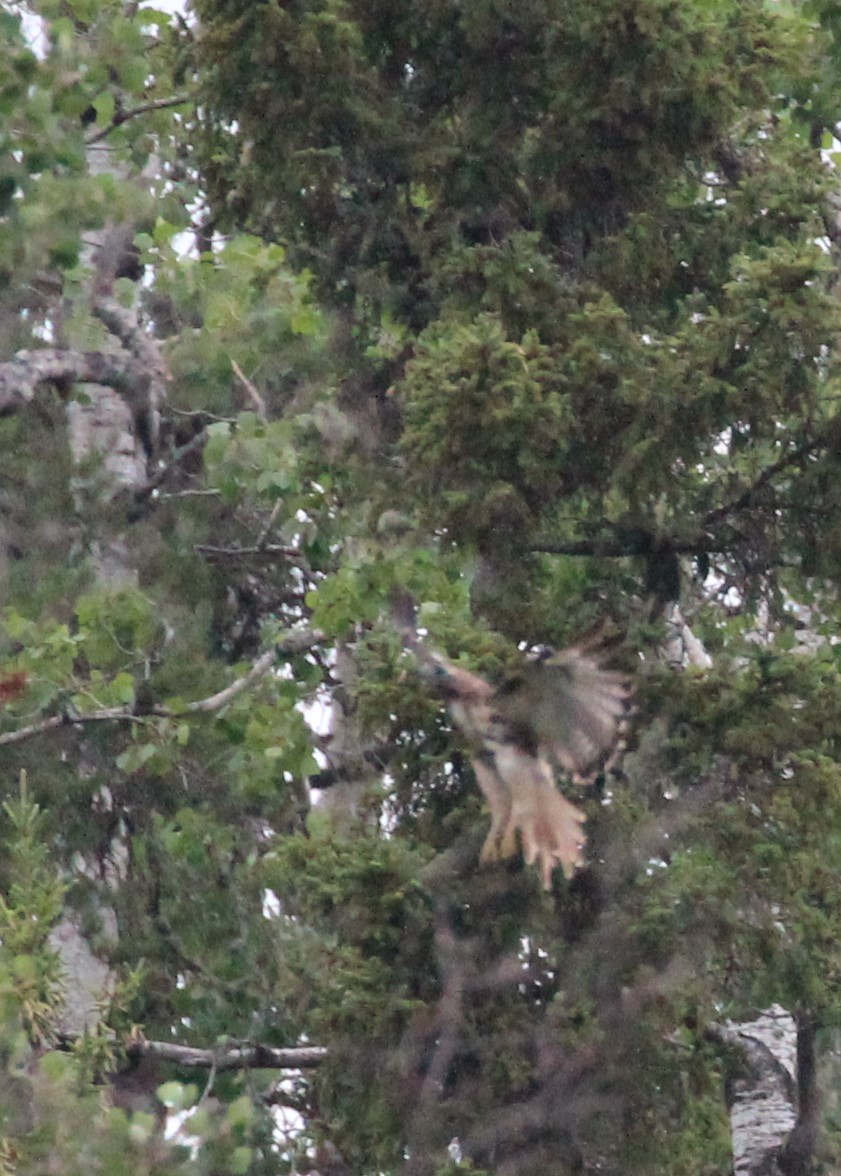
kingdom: Animalia
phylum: Chordata
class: Aves
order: Accipitriformes
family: Accipitridae
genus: Buteo
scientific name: Buteo jamaicensis
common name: Red-tailed hawk
